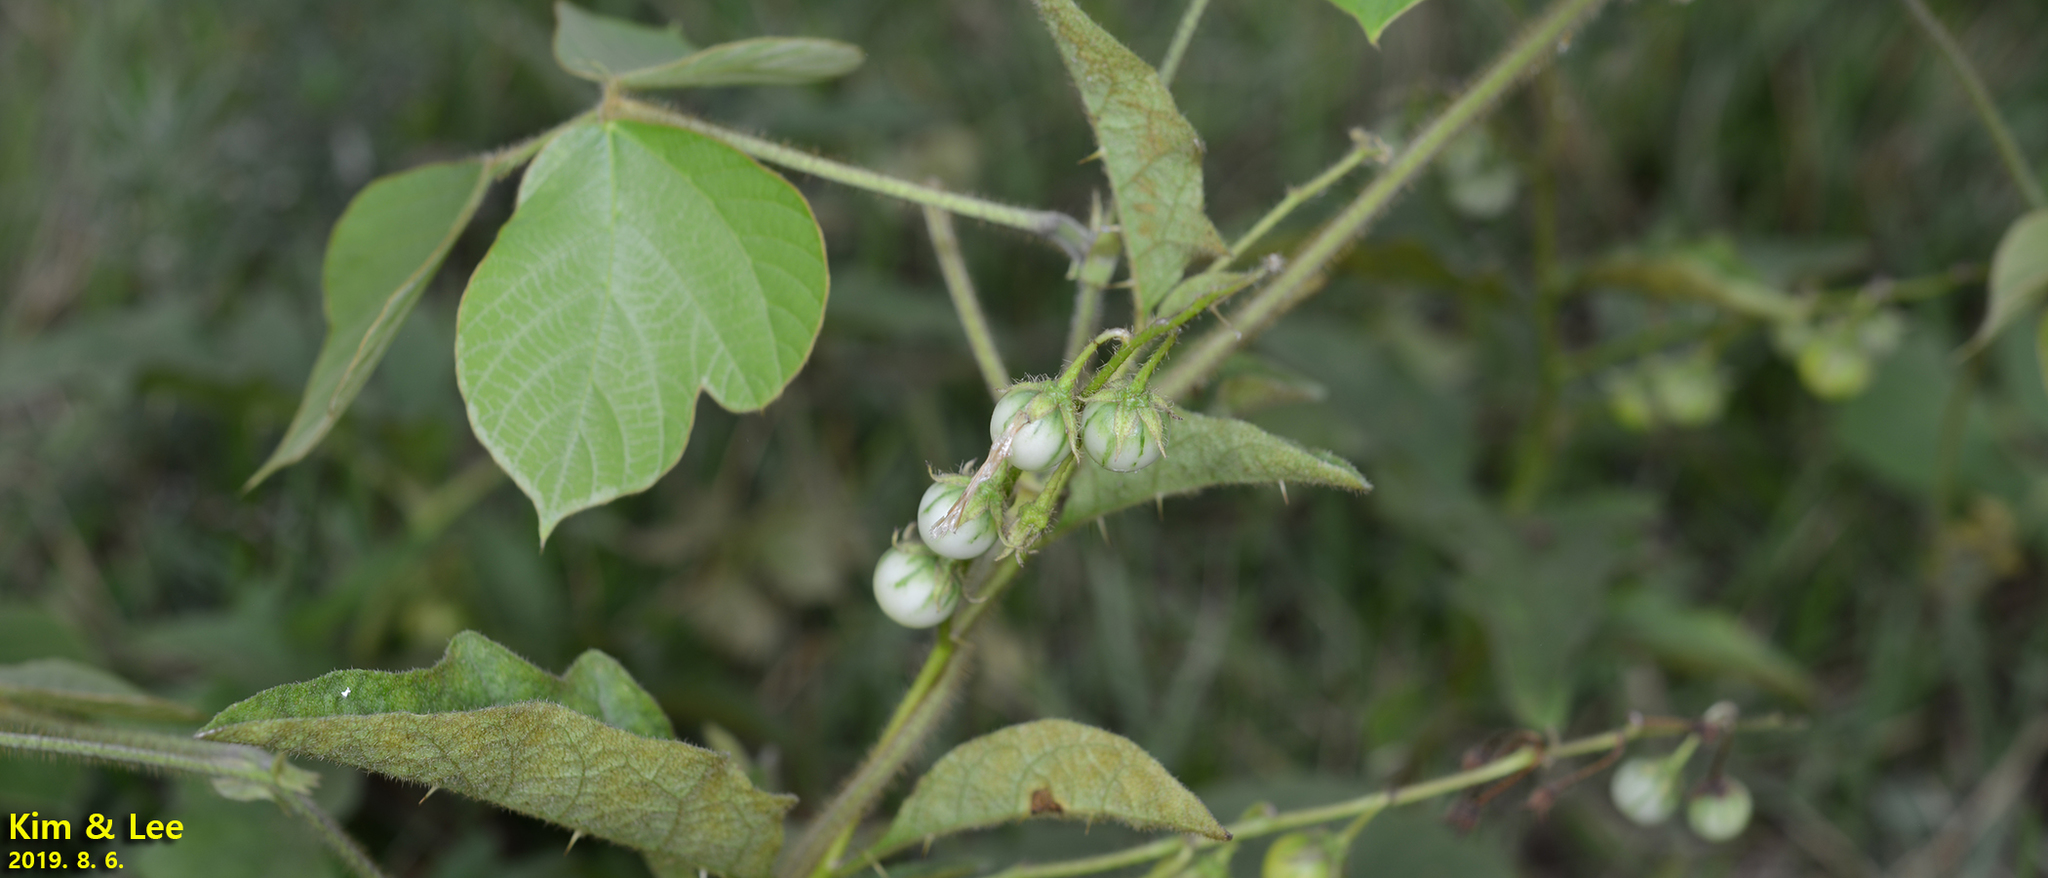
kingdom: Plantae
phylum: Tracheophyta
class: Magnoliopsida
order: Solanales
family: Solanaceae
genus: Solanum
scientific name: Solanum carolinense
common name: Horse-nettle
